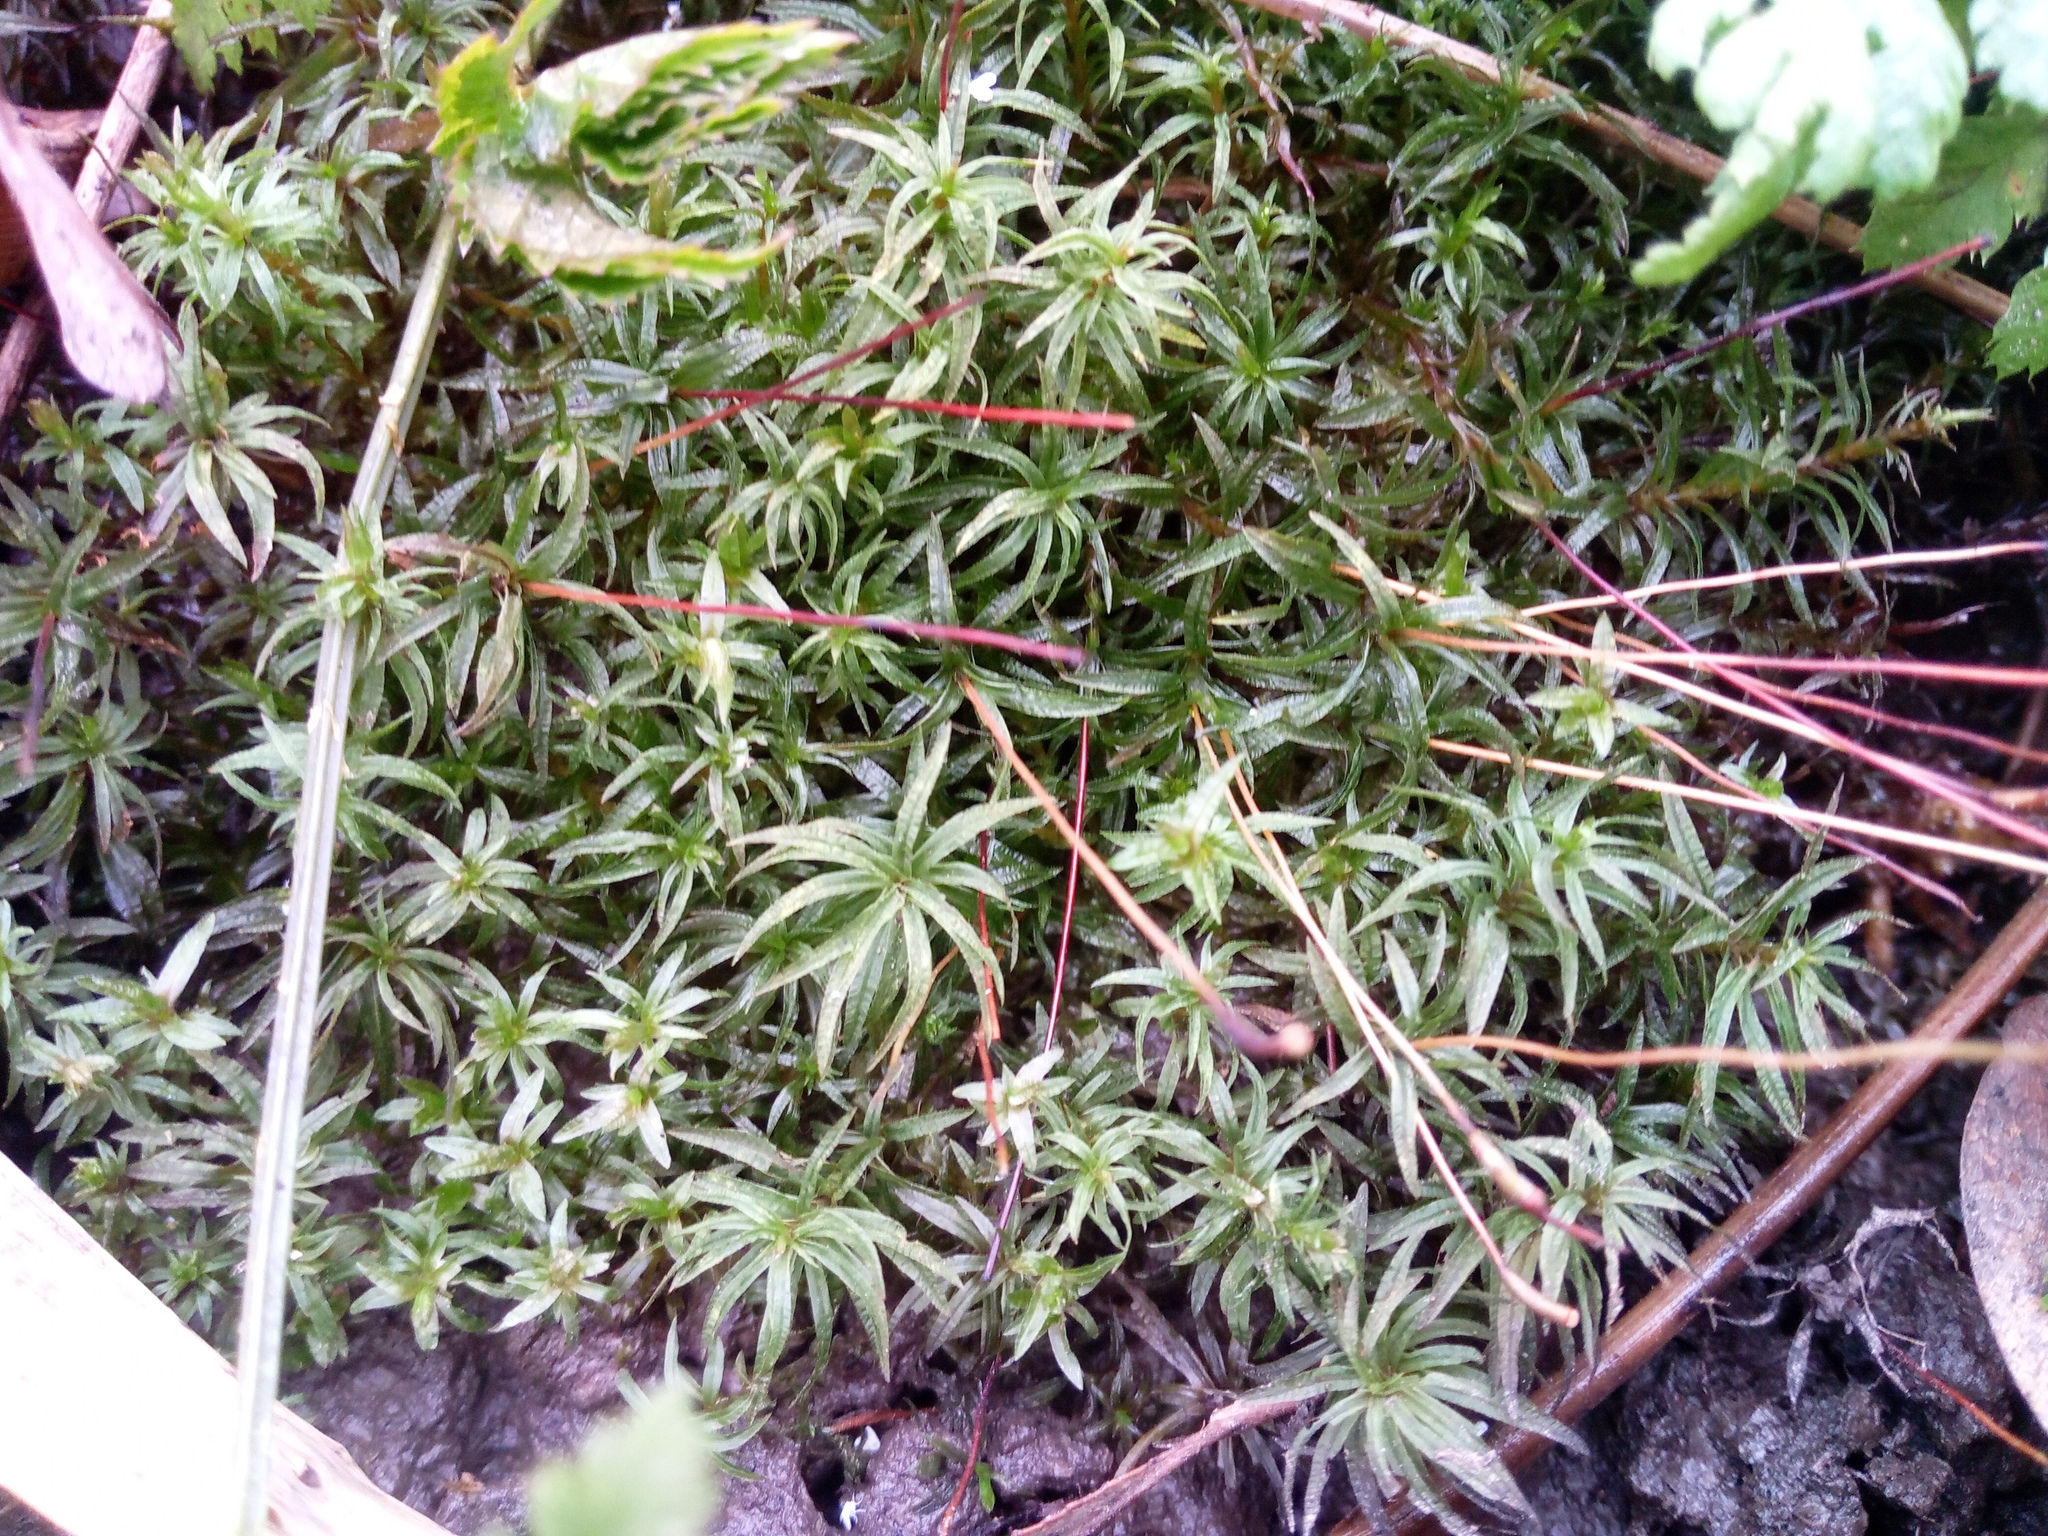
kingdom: Plantae
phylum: Bryophyta
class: Polytrichopsida
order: Polytrichales
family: Polytrichaceae
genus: Atrichum
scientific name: Atrichum undulatum
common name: Common smoothcap
